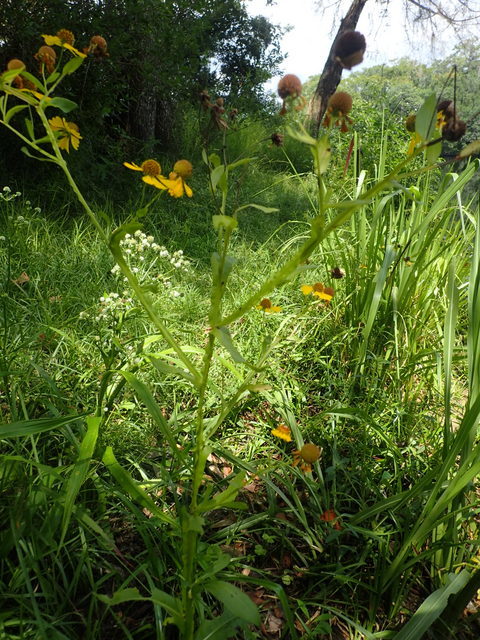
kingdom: Plantae
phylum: Tracheophyta
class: Magnoliopsida
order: Asterales
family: Asteraceae
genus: Helenium
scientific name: Helenium autumnale
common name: Sneezeweed
